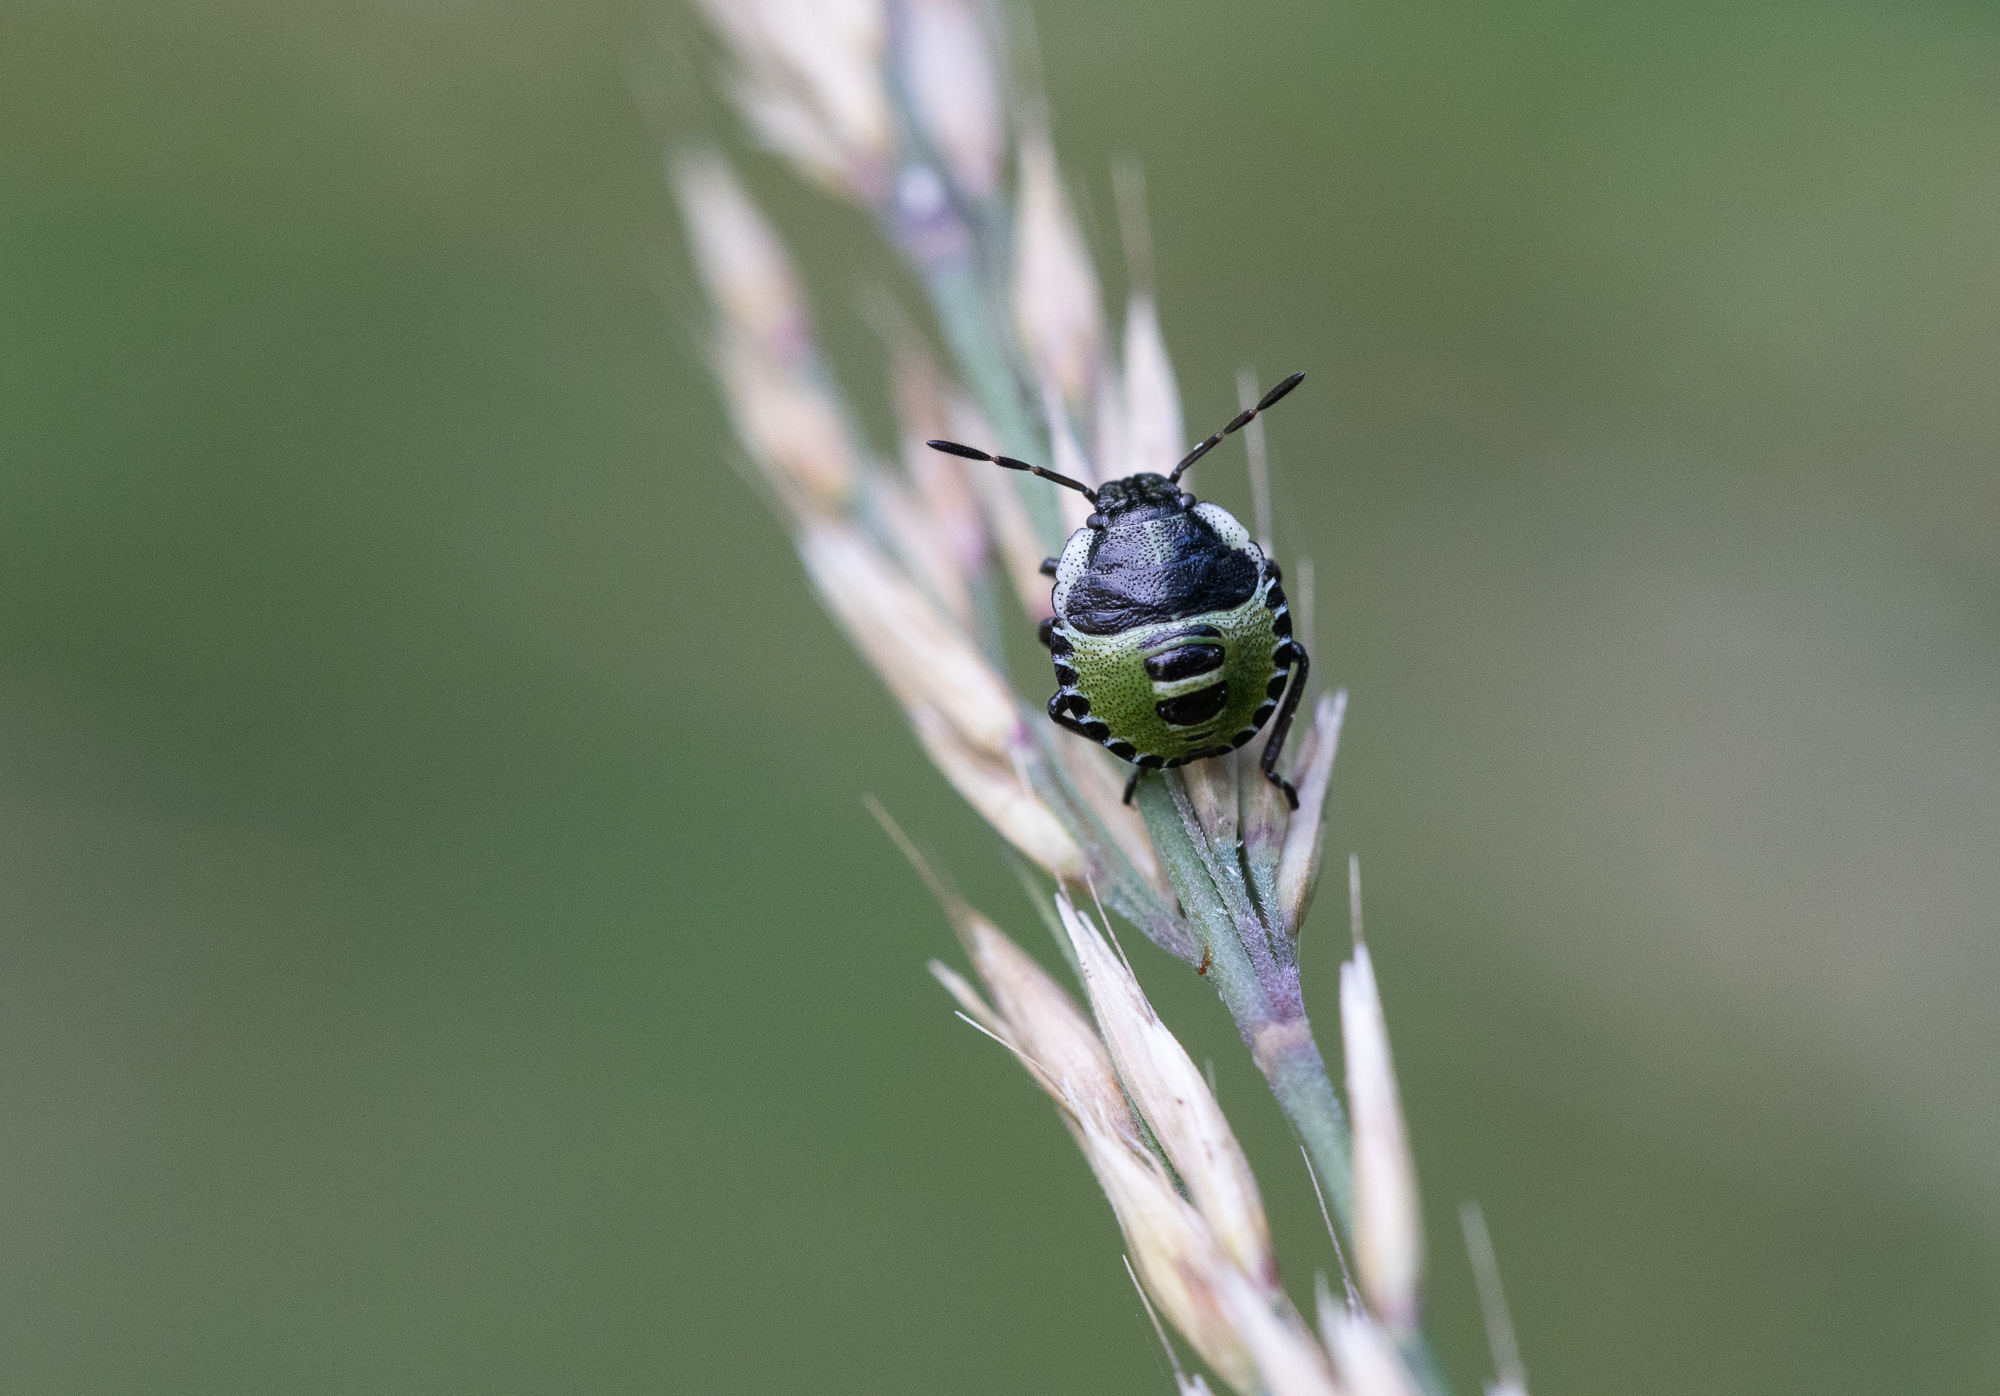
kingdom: Animalia
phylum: Arthropoda
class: Insecta
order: Hemiptera
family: Pentatomidae
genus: Palomena
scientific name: Palomena prasina
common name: Green shieldbug
